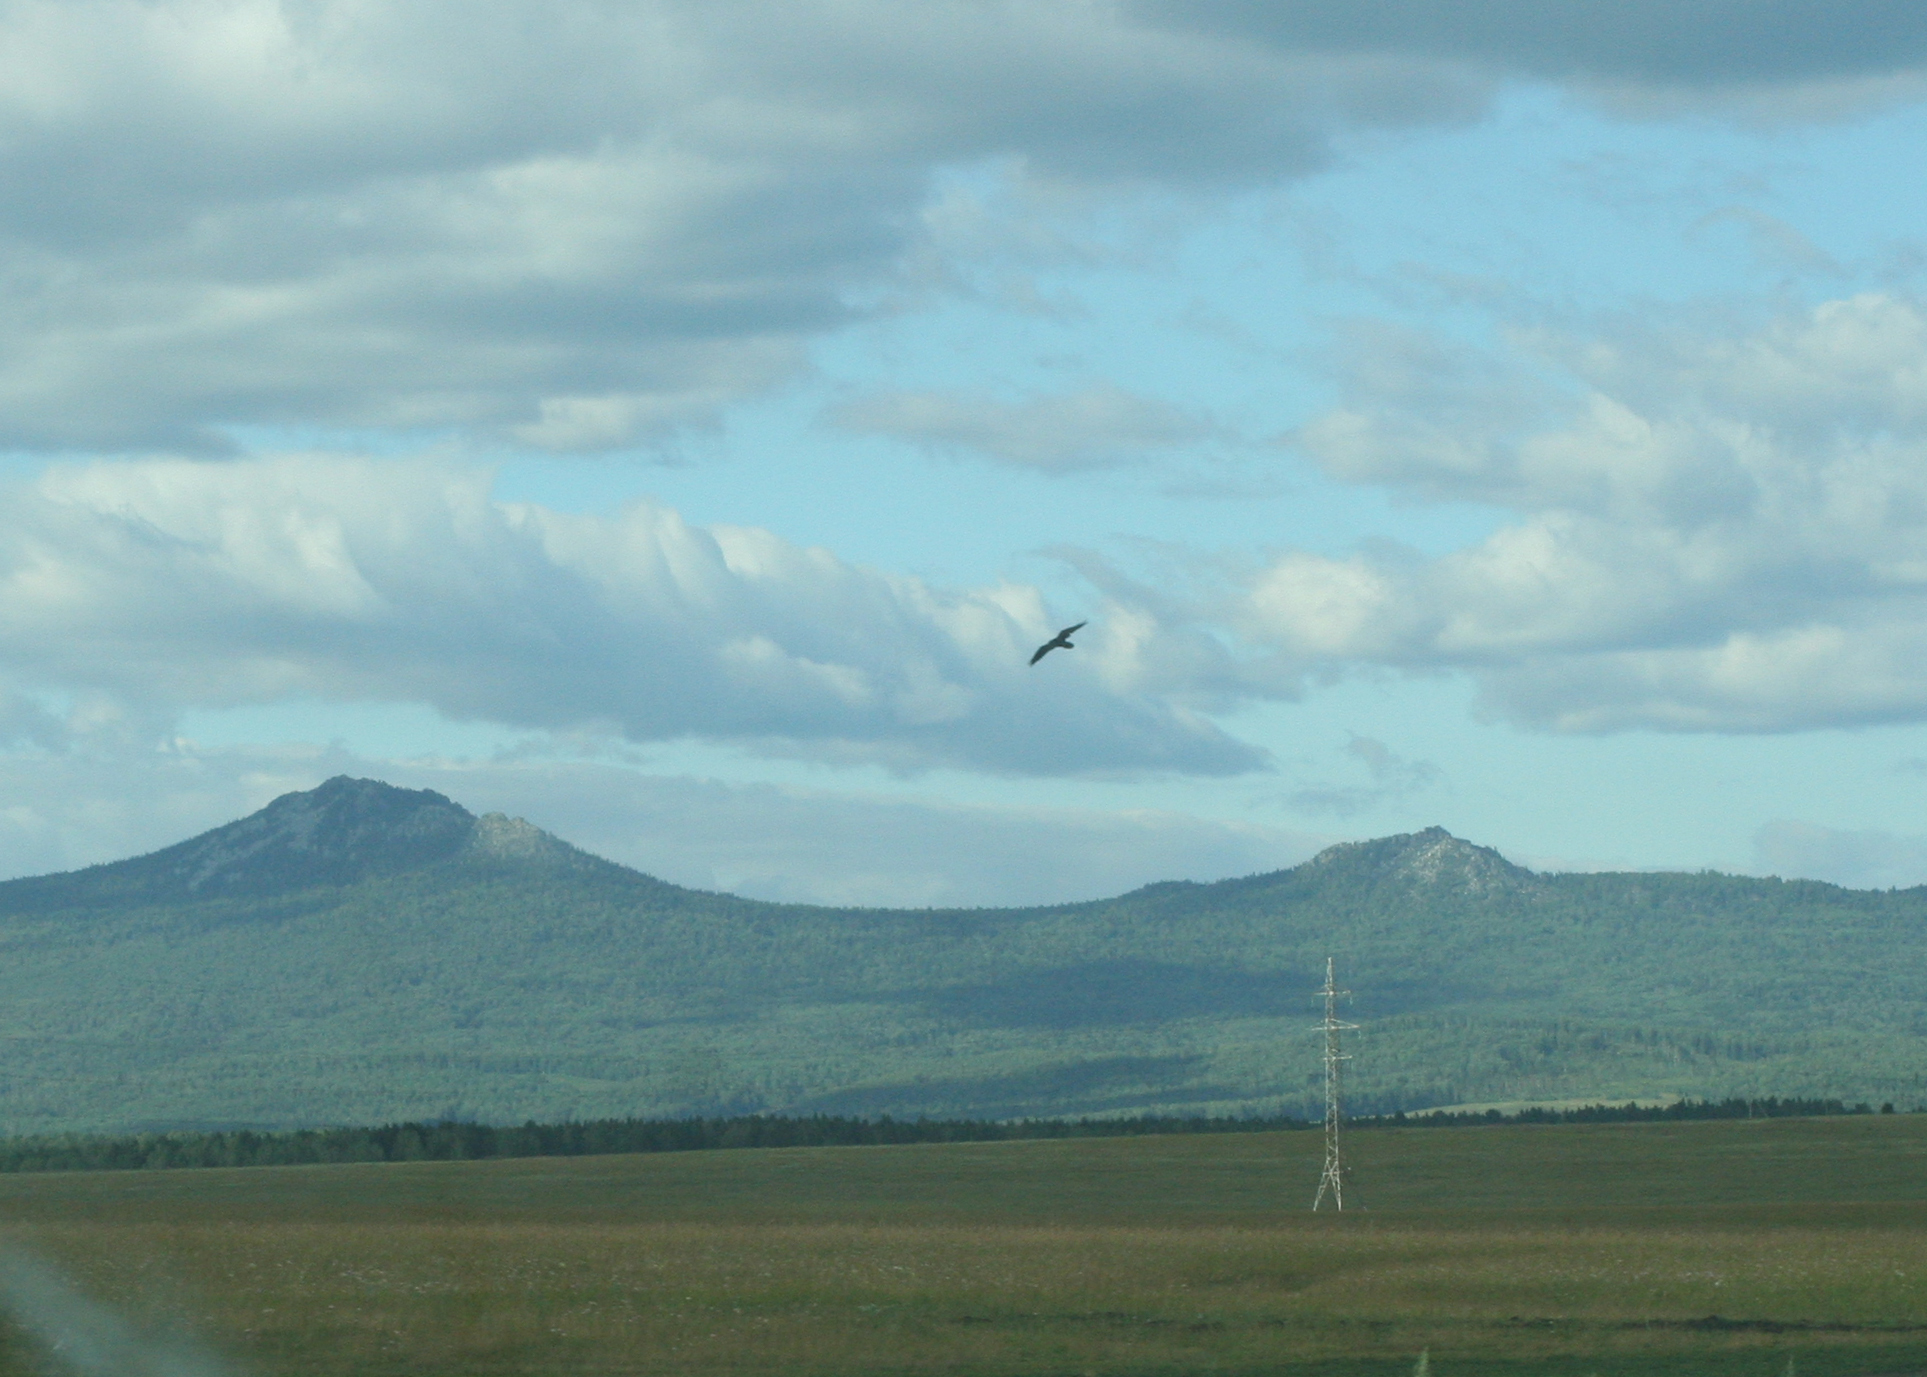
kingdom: Animalia
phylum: Chordata
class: Aves
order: Passeriformes
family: Corvidae
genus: Corvus
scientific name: Corvus corax
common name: Common raven
